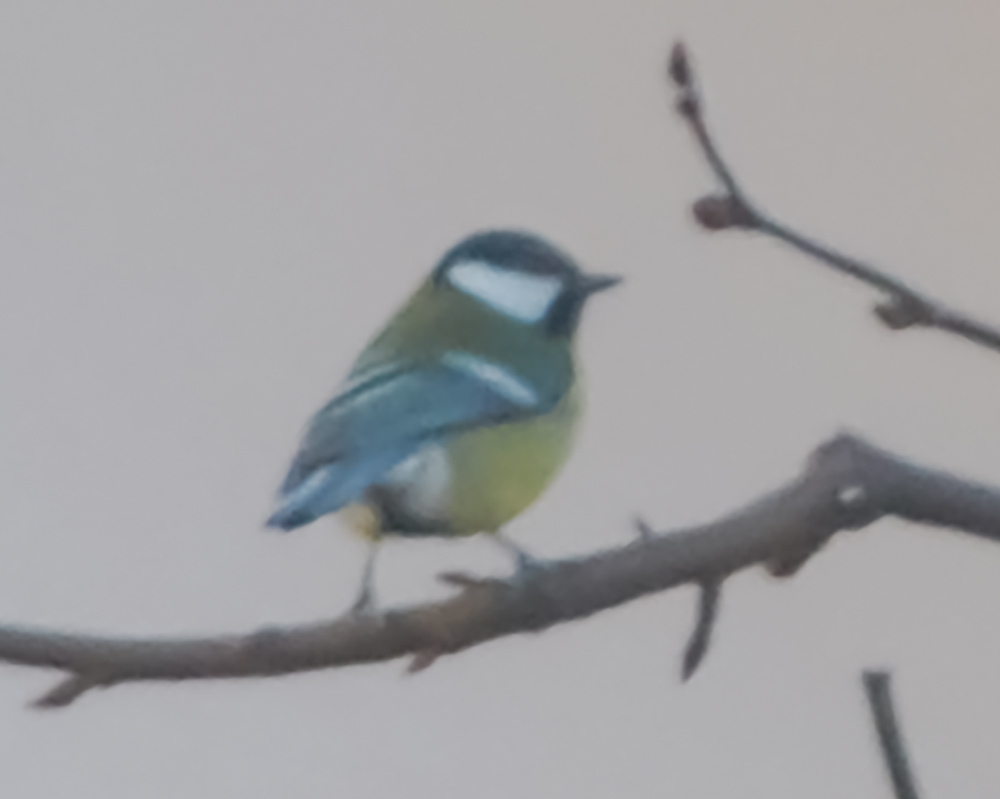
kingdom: Animalia
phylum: Chordata
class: Aves
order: Passeriformes
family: Paridae
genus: Parus
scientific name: Parus major
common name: Great tit
